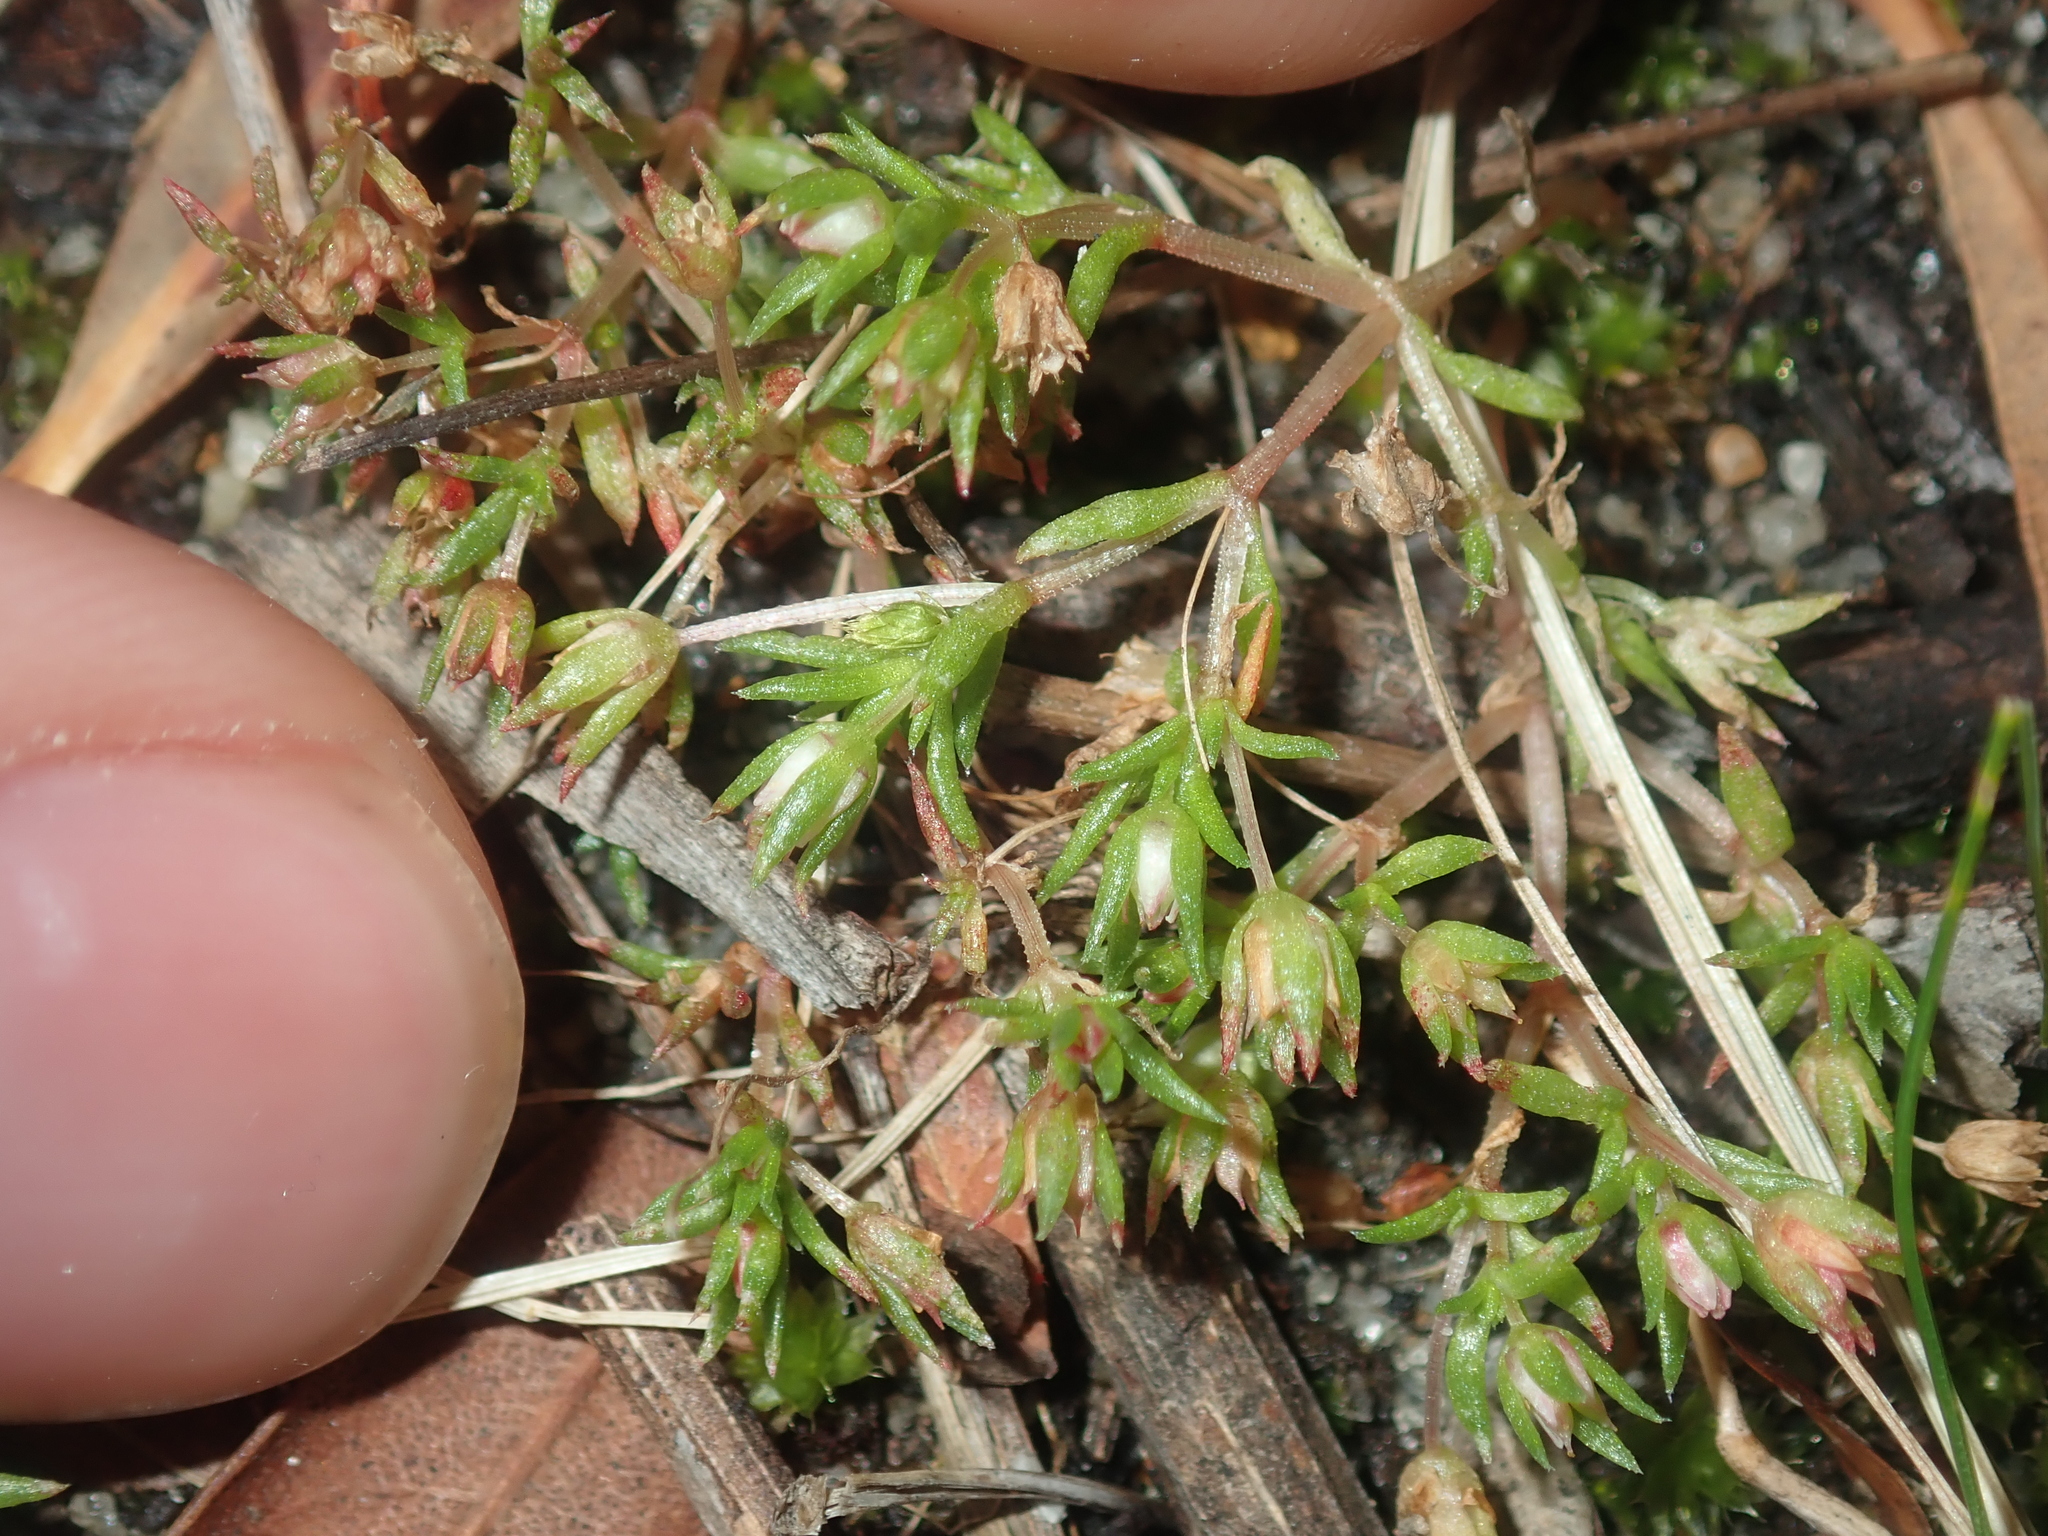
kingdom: Plantae
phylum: Tracheophyta
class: Magnoliopsida
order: Saxifragales
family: Crassulaceae
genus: Crassula
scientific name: Crassula decumbens
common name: Scilly pigmyweed
